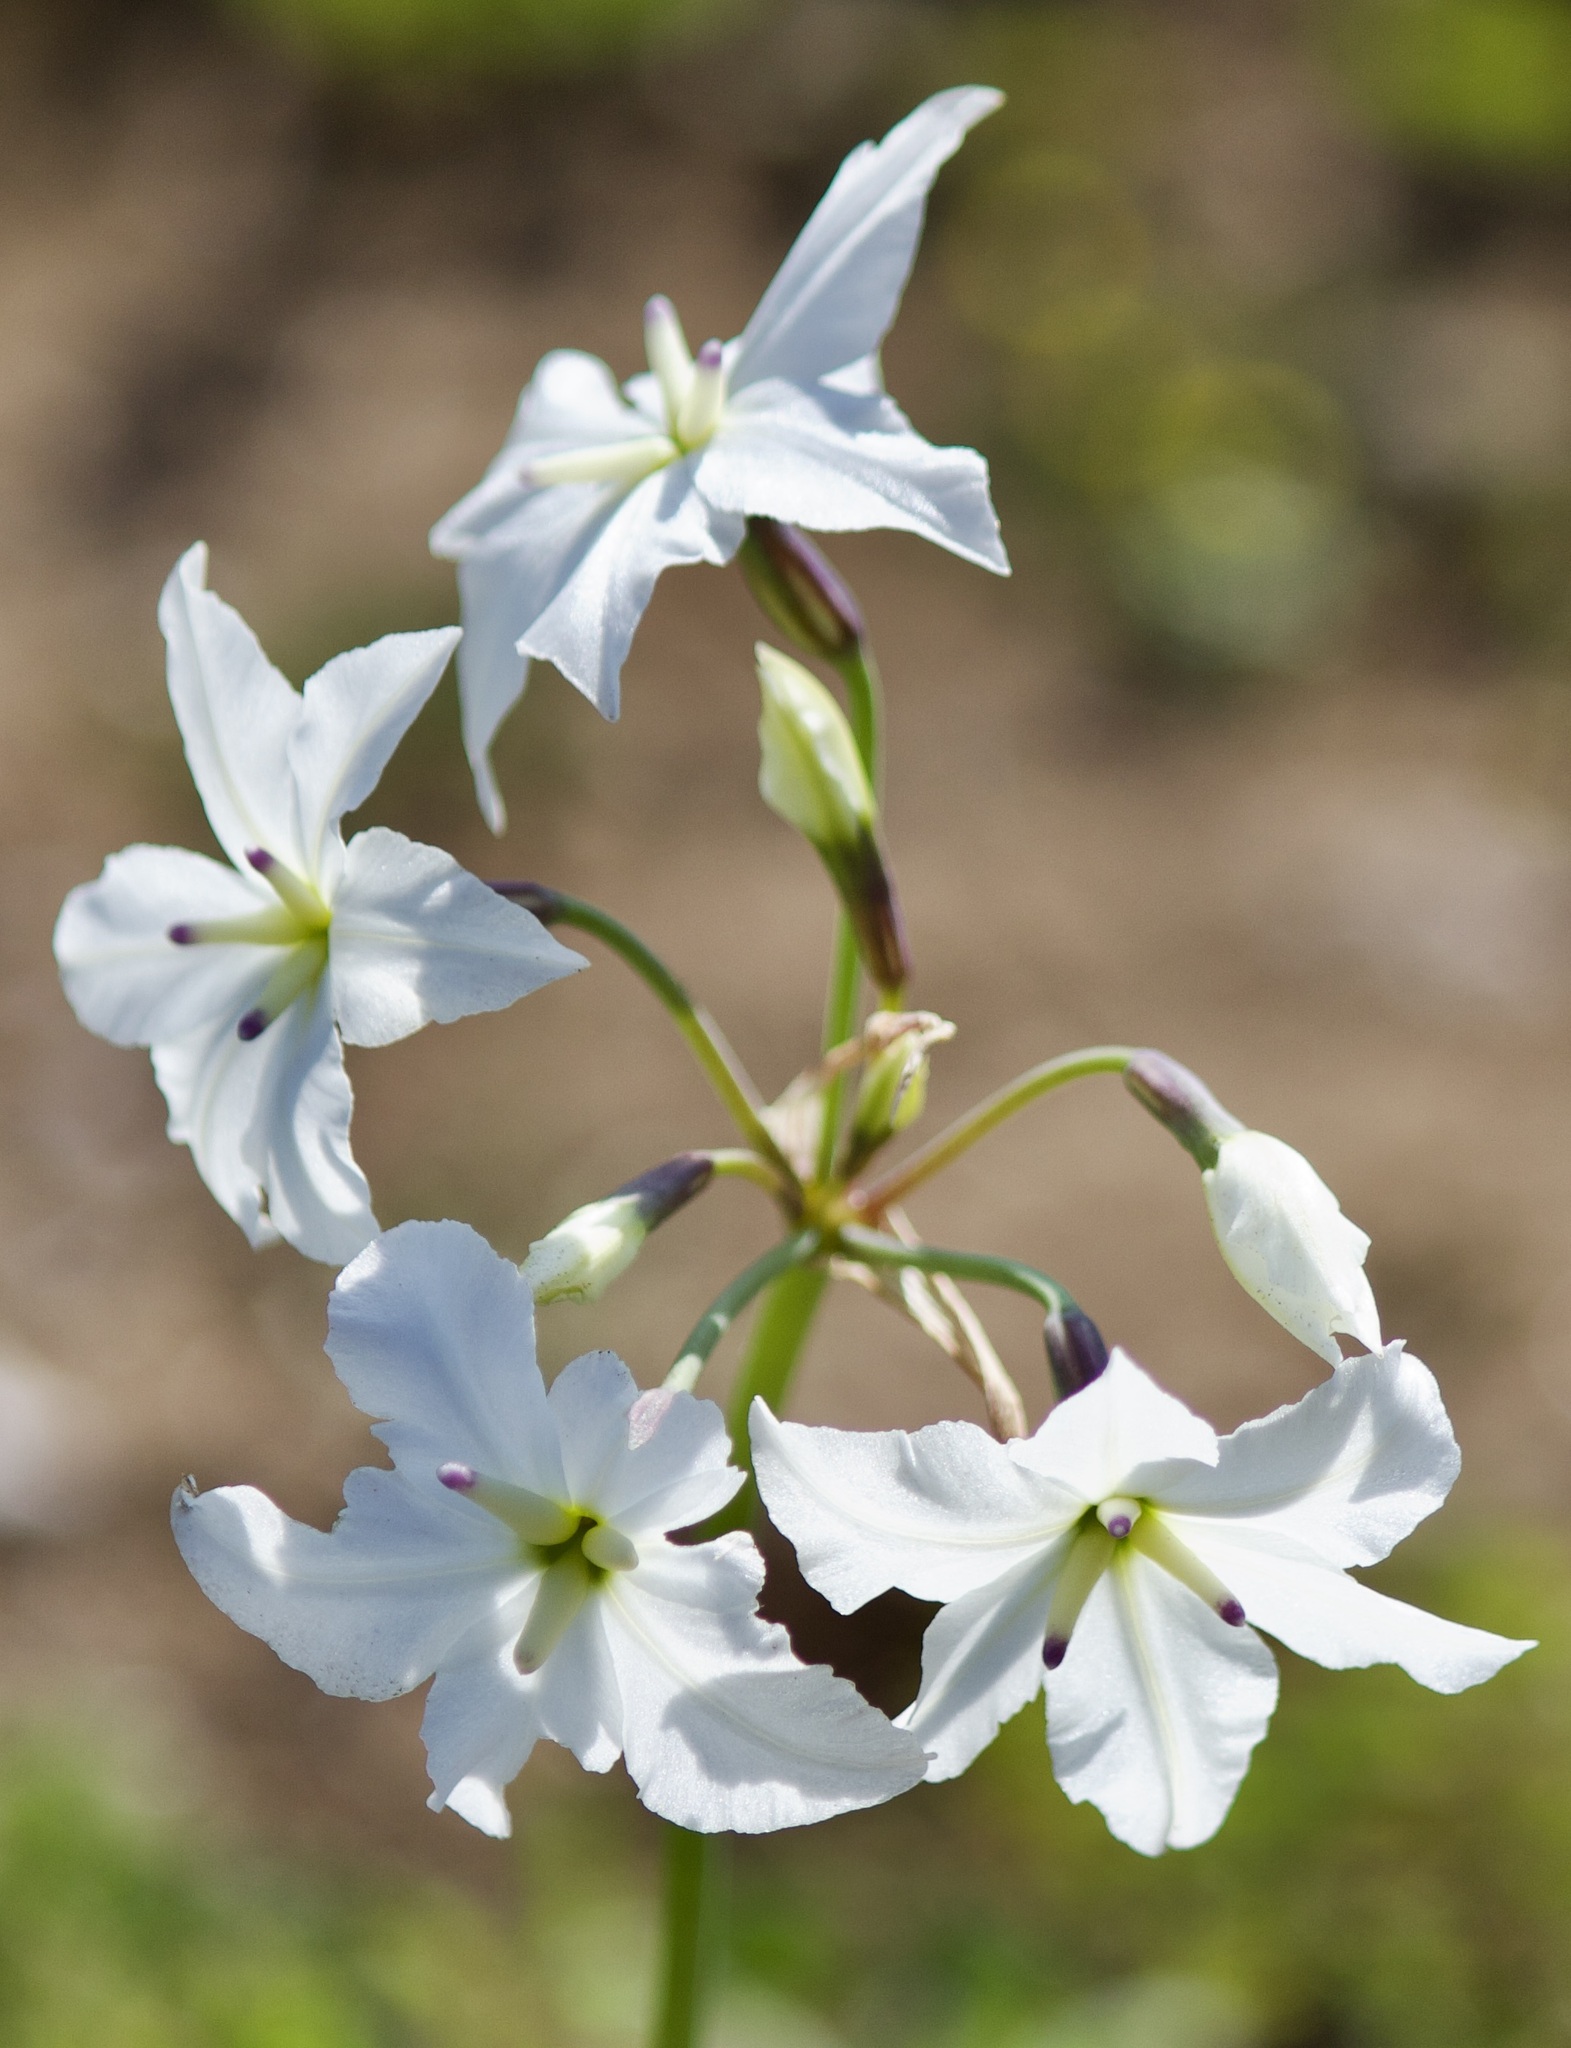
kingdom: Plantae
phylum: Tracheophyta
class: Liliopsida
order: Asparagales
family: Amaryllidaceae
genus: Leucocoryne
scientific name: Leucocoryne ixioides
